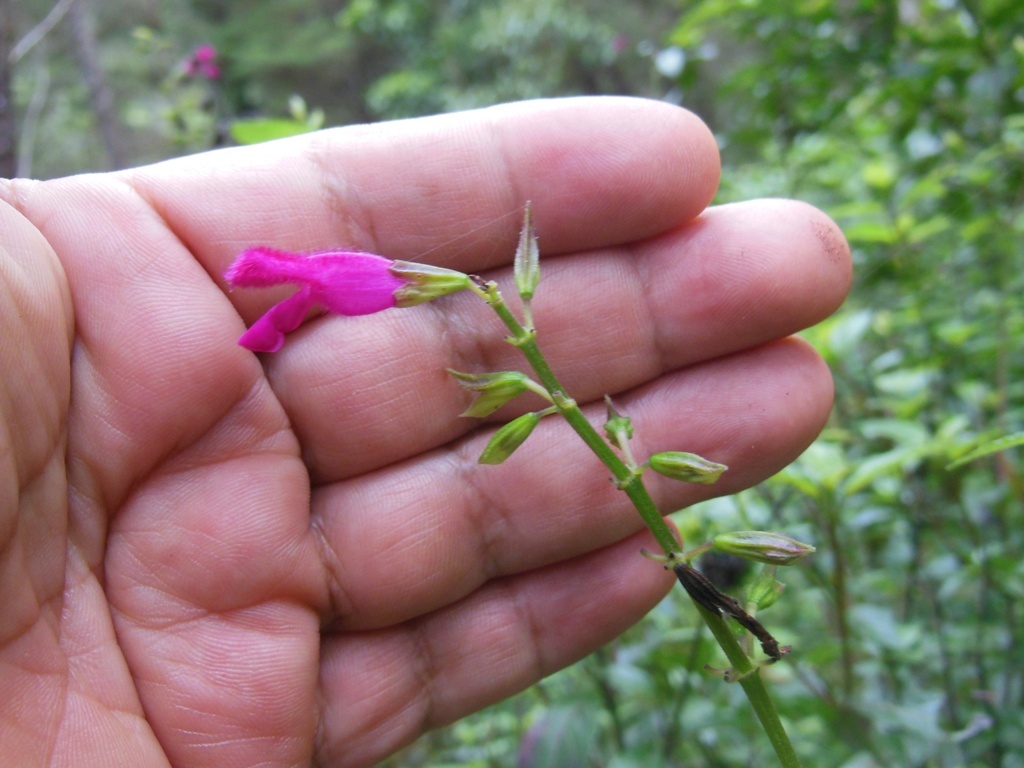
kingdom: Plantae
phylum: Tracheophyta
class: Magnoliopsida
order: Lamiales
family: Lamiaceae
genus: Salvia
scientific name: Salvia chiapensis
